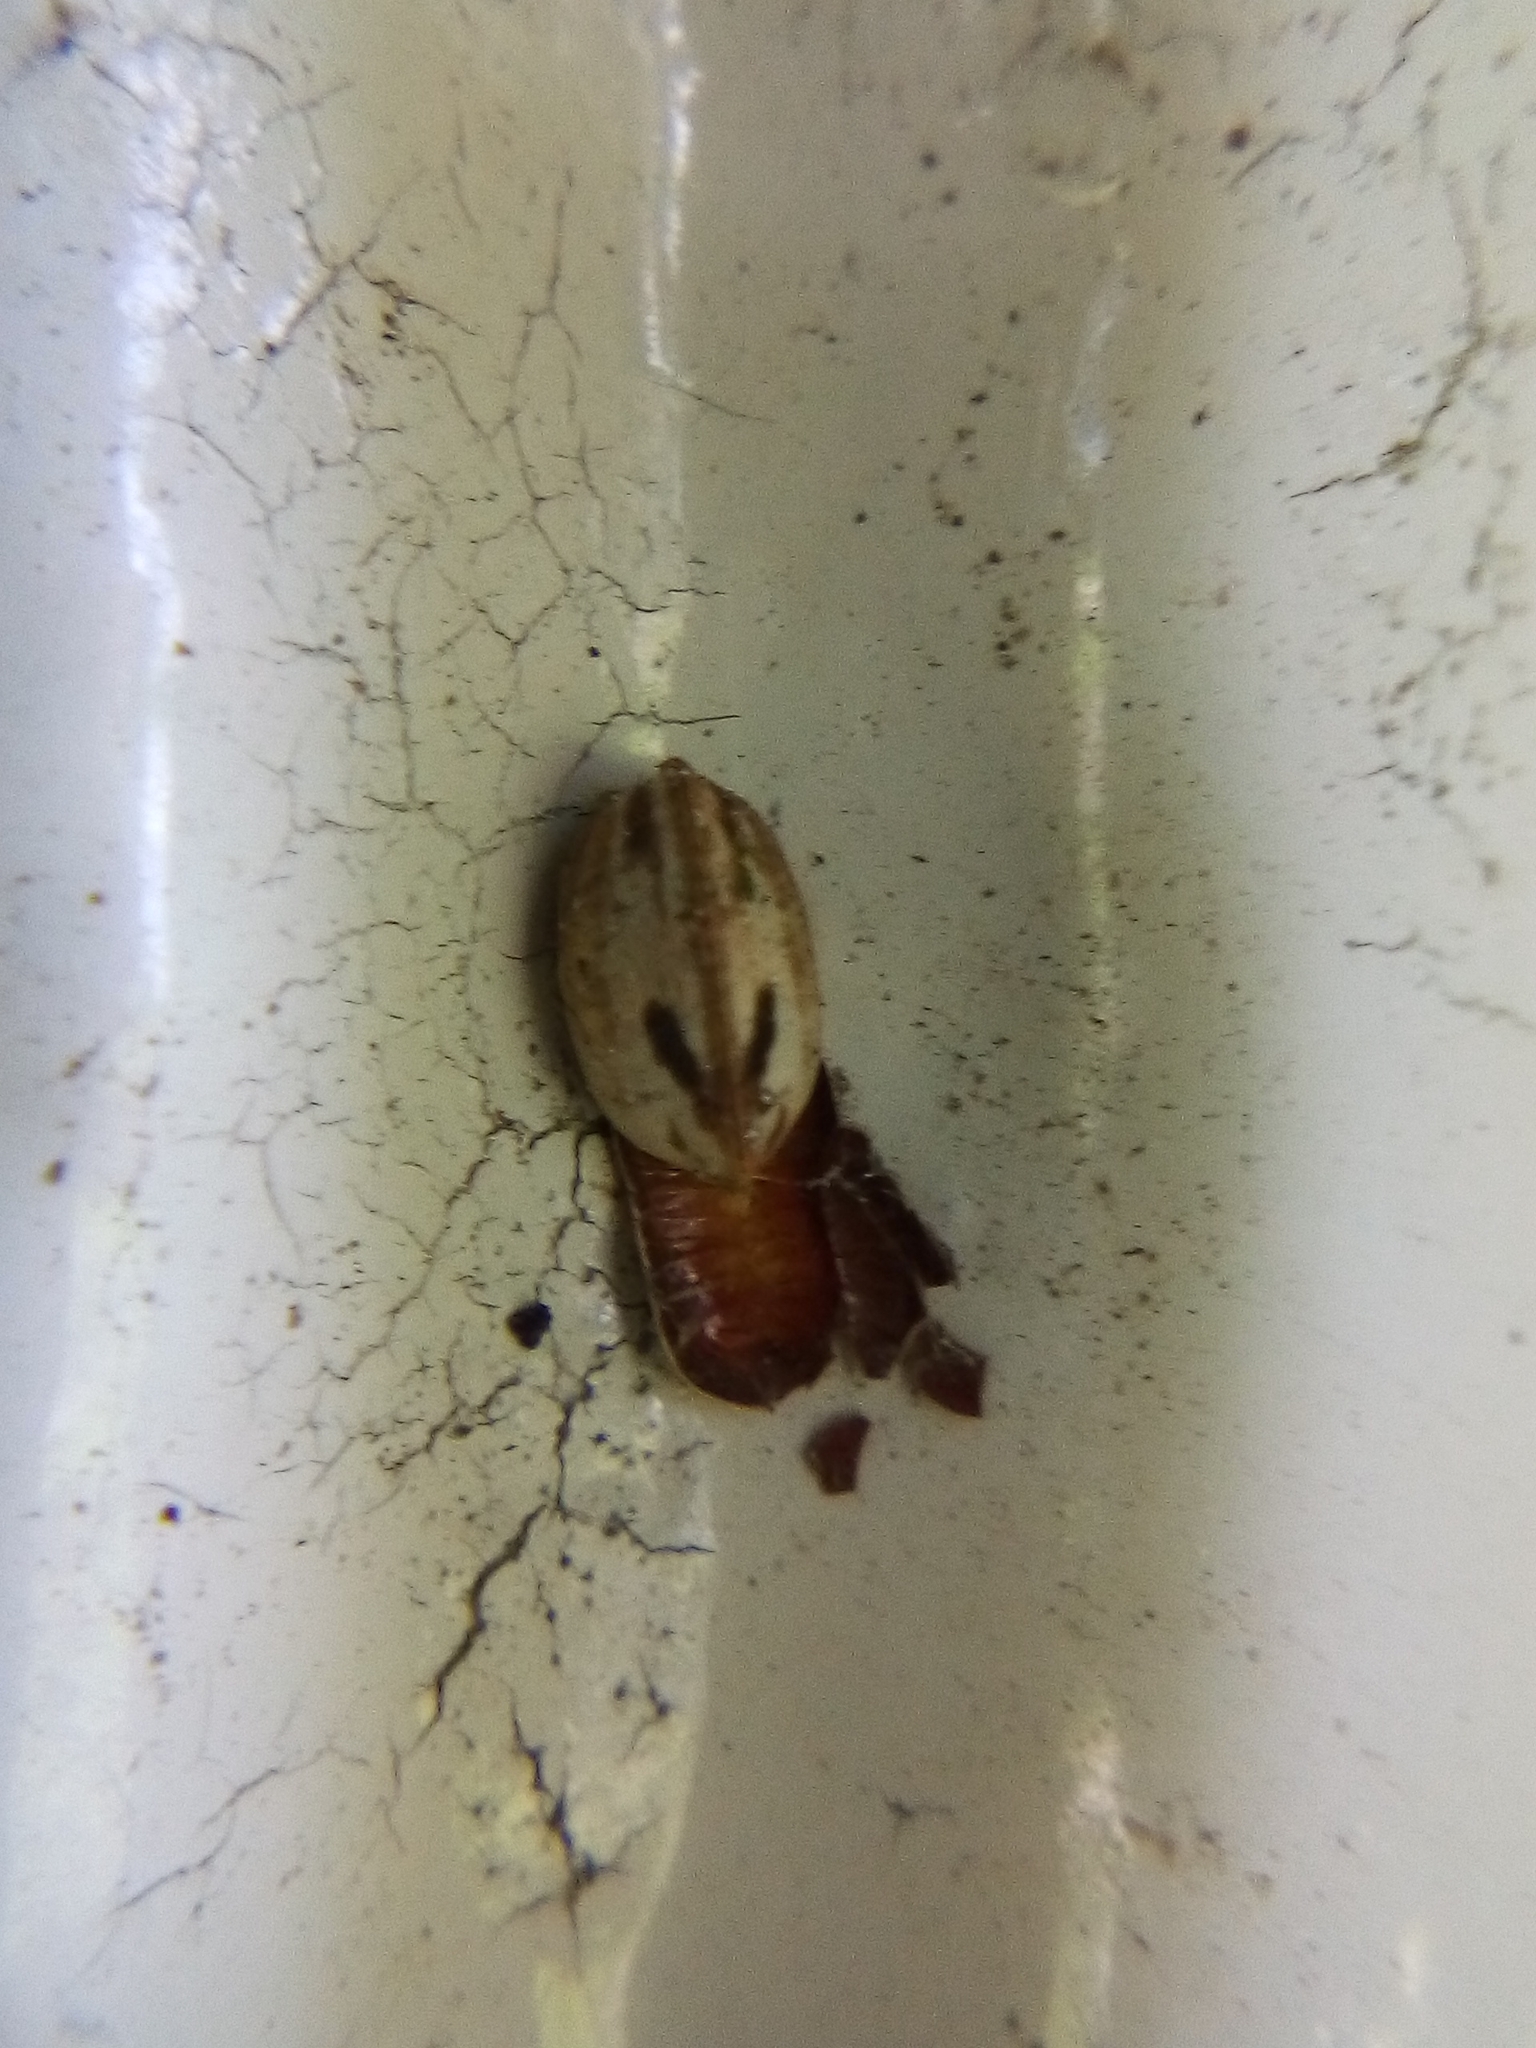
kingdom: Animalia
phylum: Arthropoda
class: Insecta
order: Blattodea
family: Ectobiidae
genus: Balta
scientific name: Balta bicolor
